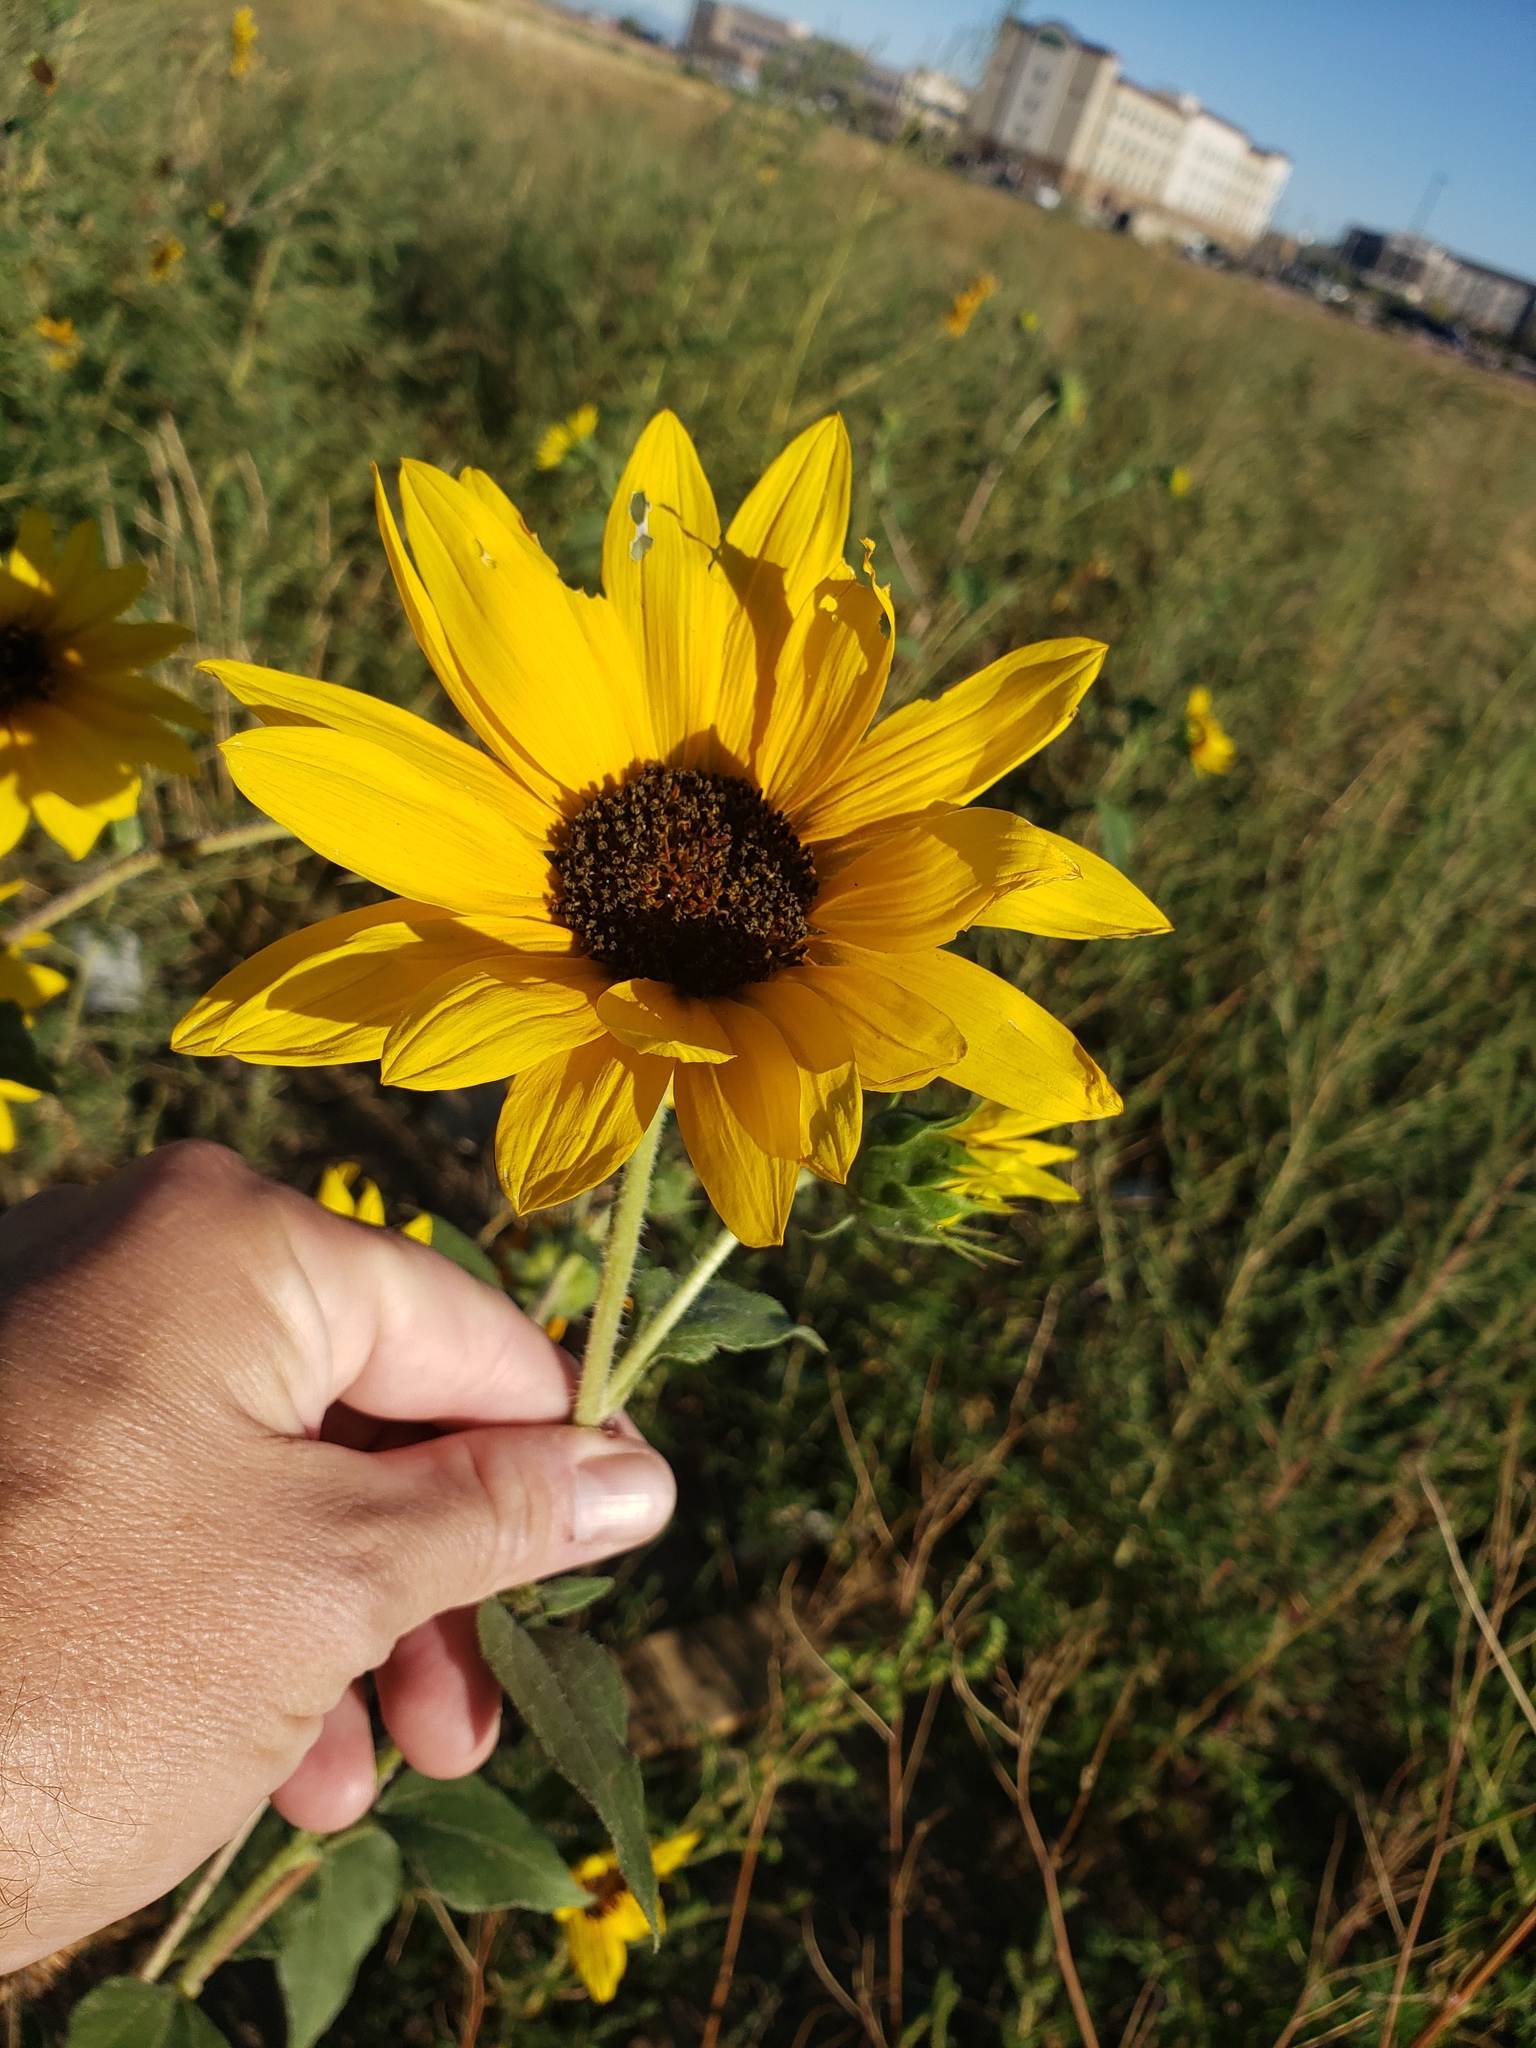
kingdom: Plantae
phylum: Tracheophyta
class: Magnoliopsida
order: Asterales
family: Asteraceae
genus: Helianthus
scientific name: Helianthus annuus
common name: Sunflower
